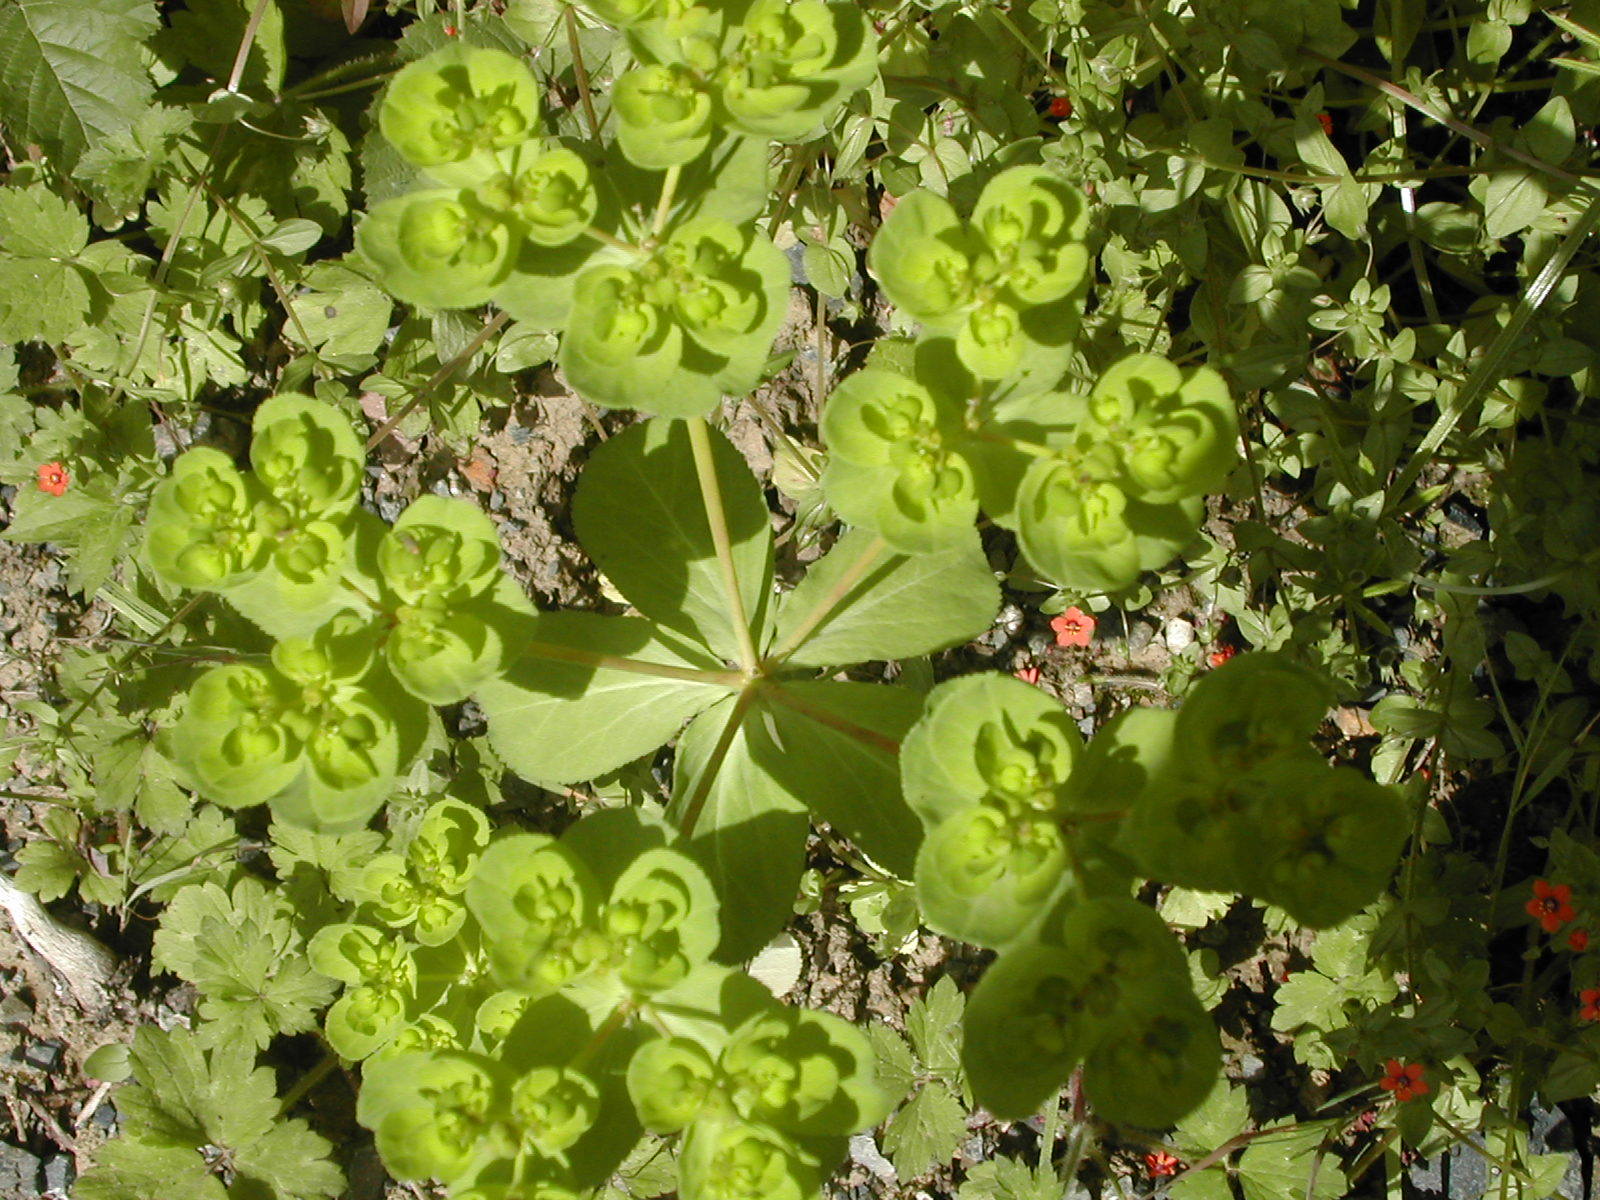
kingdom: Plantae
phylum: Tracheophyta
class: Magnoliopsida
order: Malpighiales
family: Euphorbiaceae
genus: Euphorbia
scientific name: Euphorbia helioscopia
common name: Sun spurge
